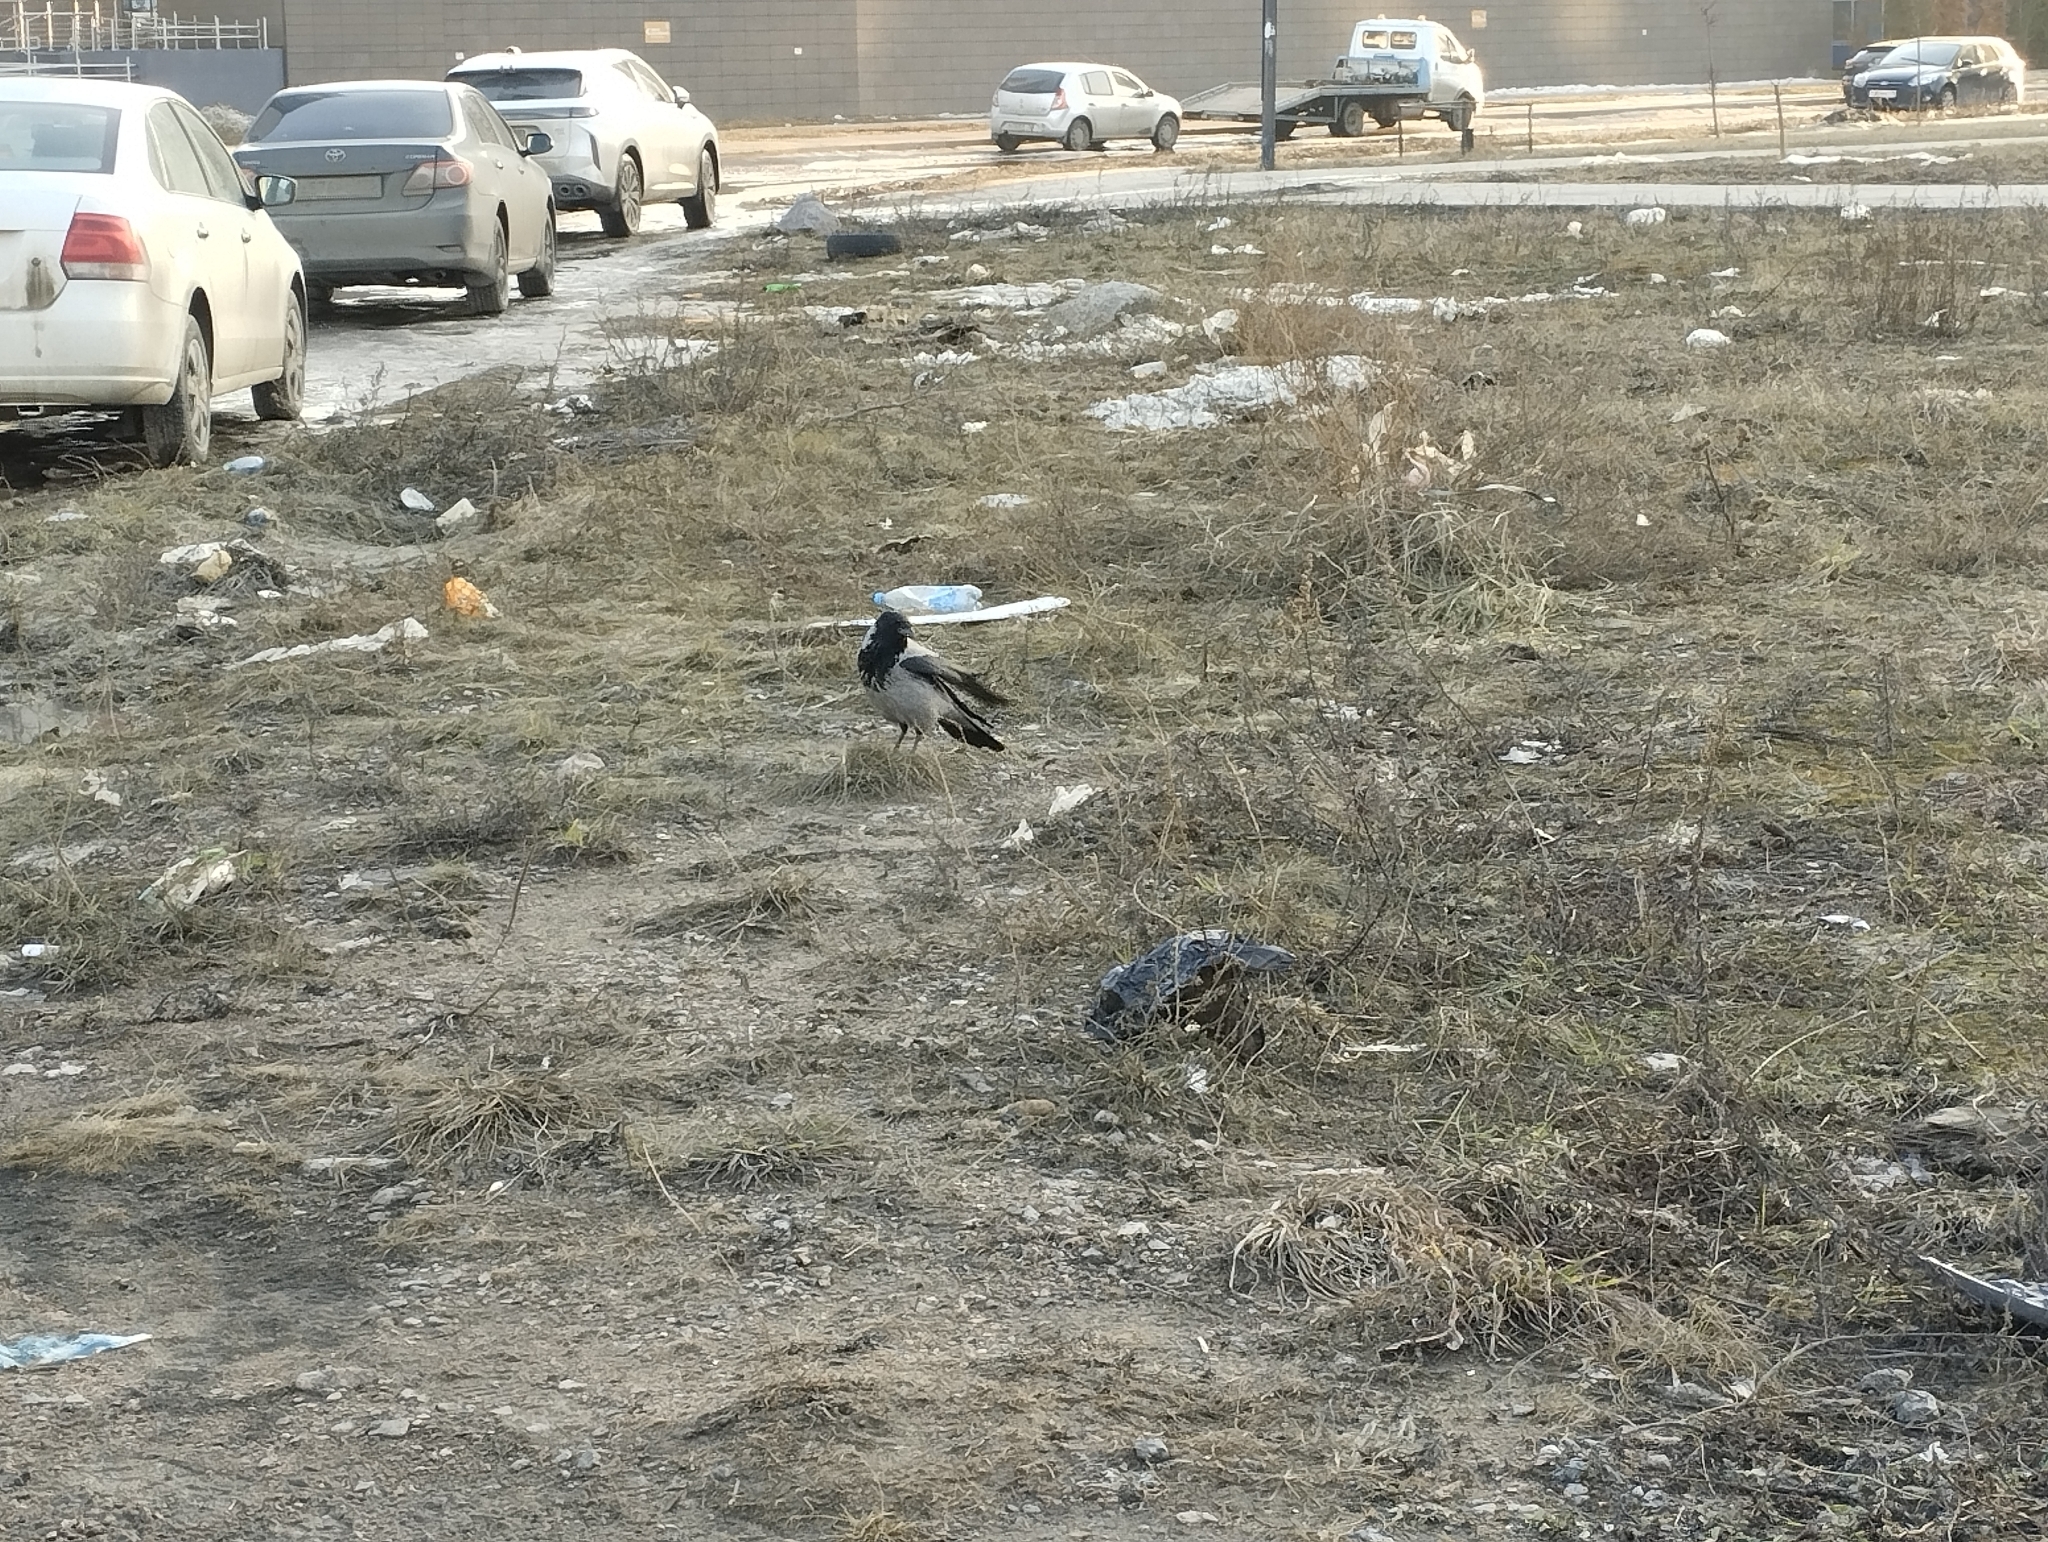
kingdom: Animalia
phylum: Chordata
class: Aves
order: Passeriformes
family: Corvidae
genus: Corvus
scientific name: Corvus cornix
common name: Hooded crow
